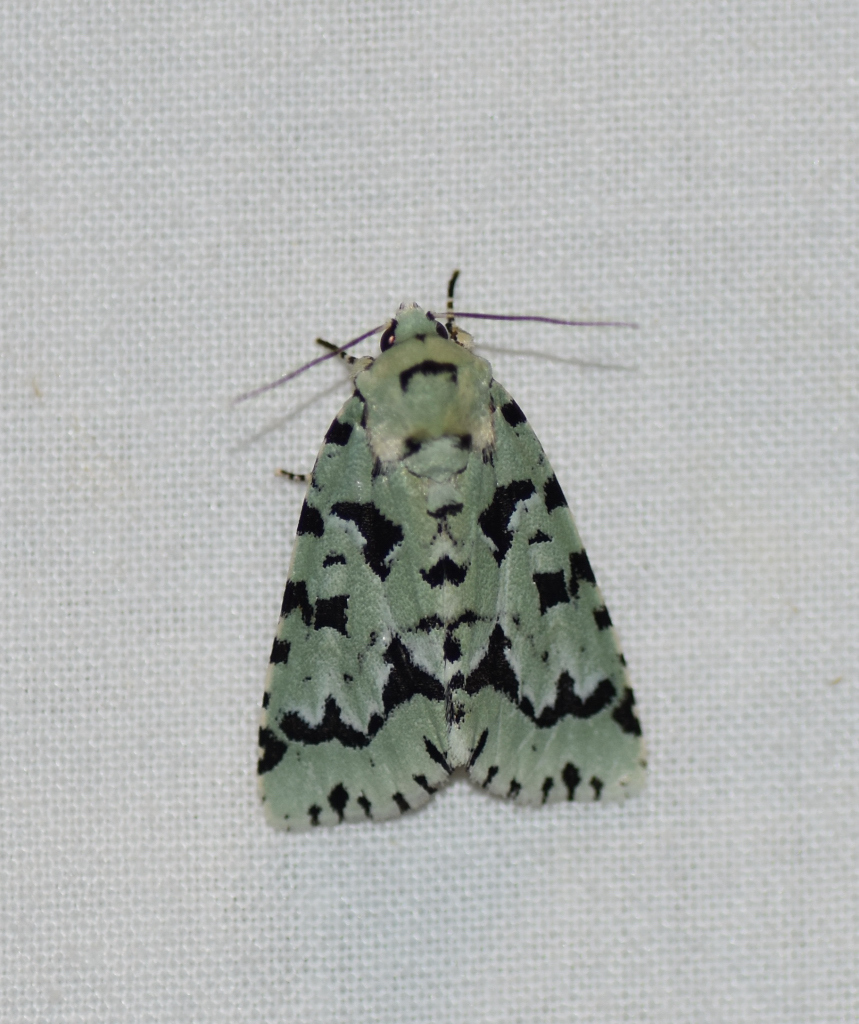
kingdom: Animalia
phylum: Arthropoda
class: Insecta
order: Lepidoptera
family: Noctuidae
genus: Acronicta
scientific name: Acronicta fallax
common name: Green marvel
